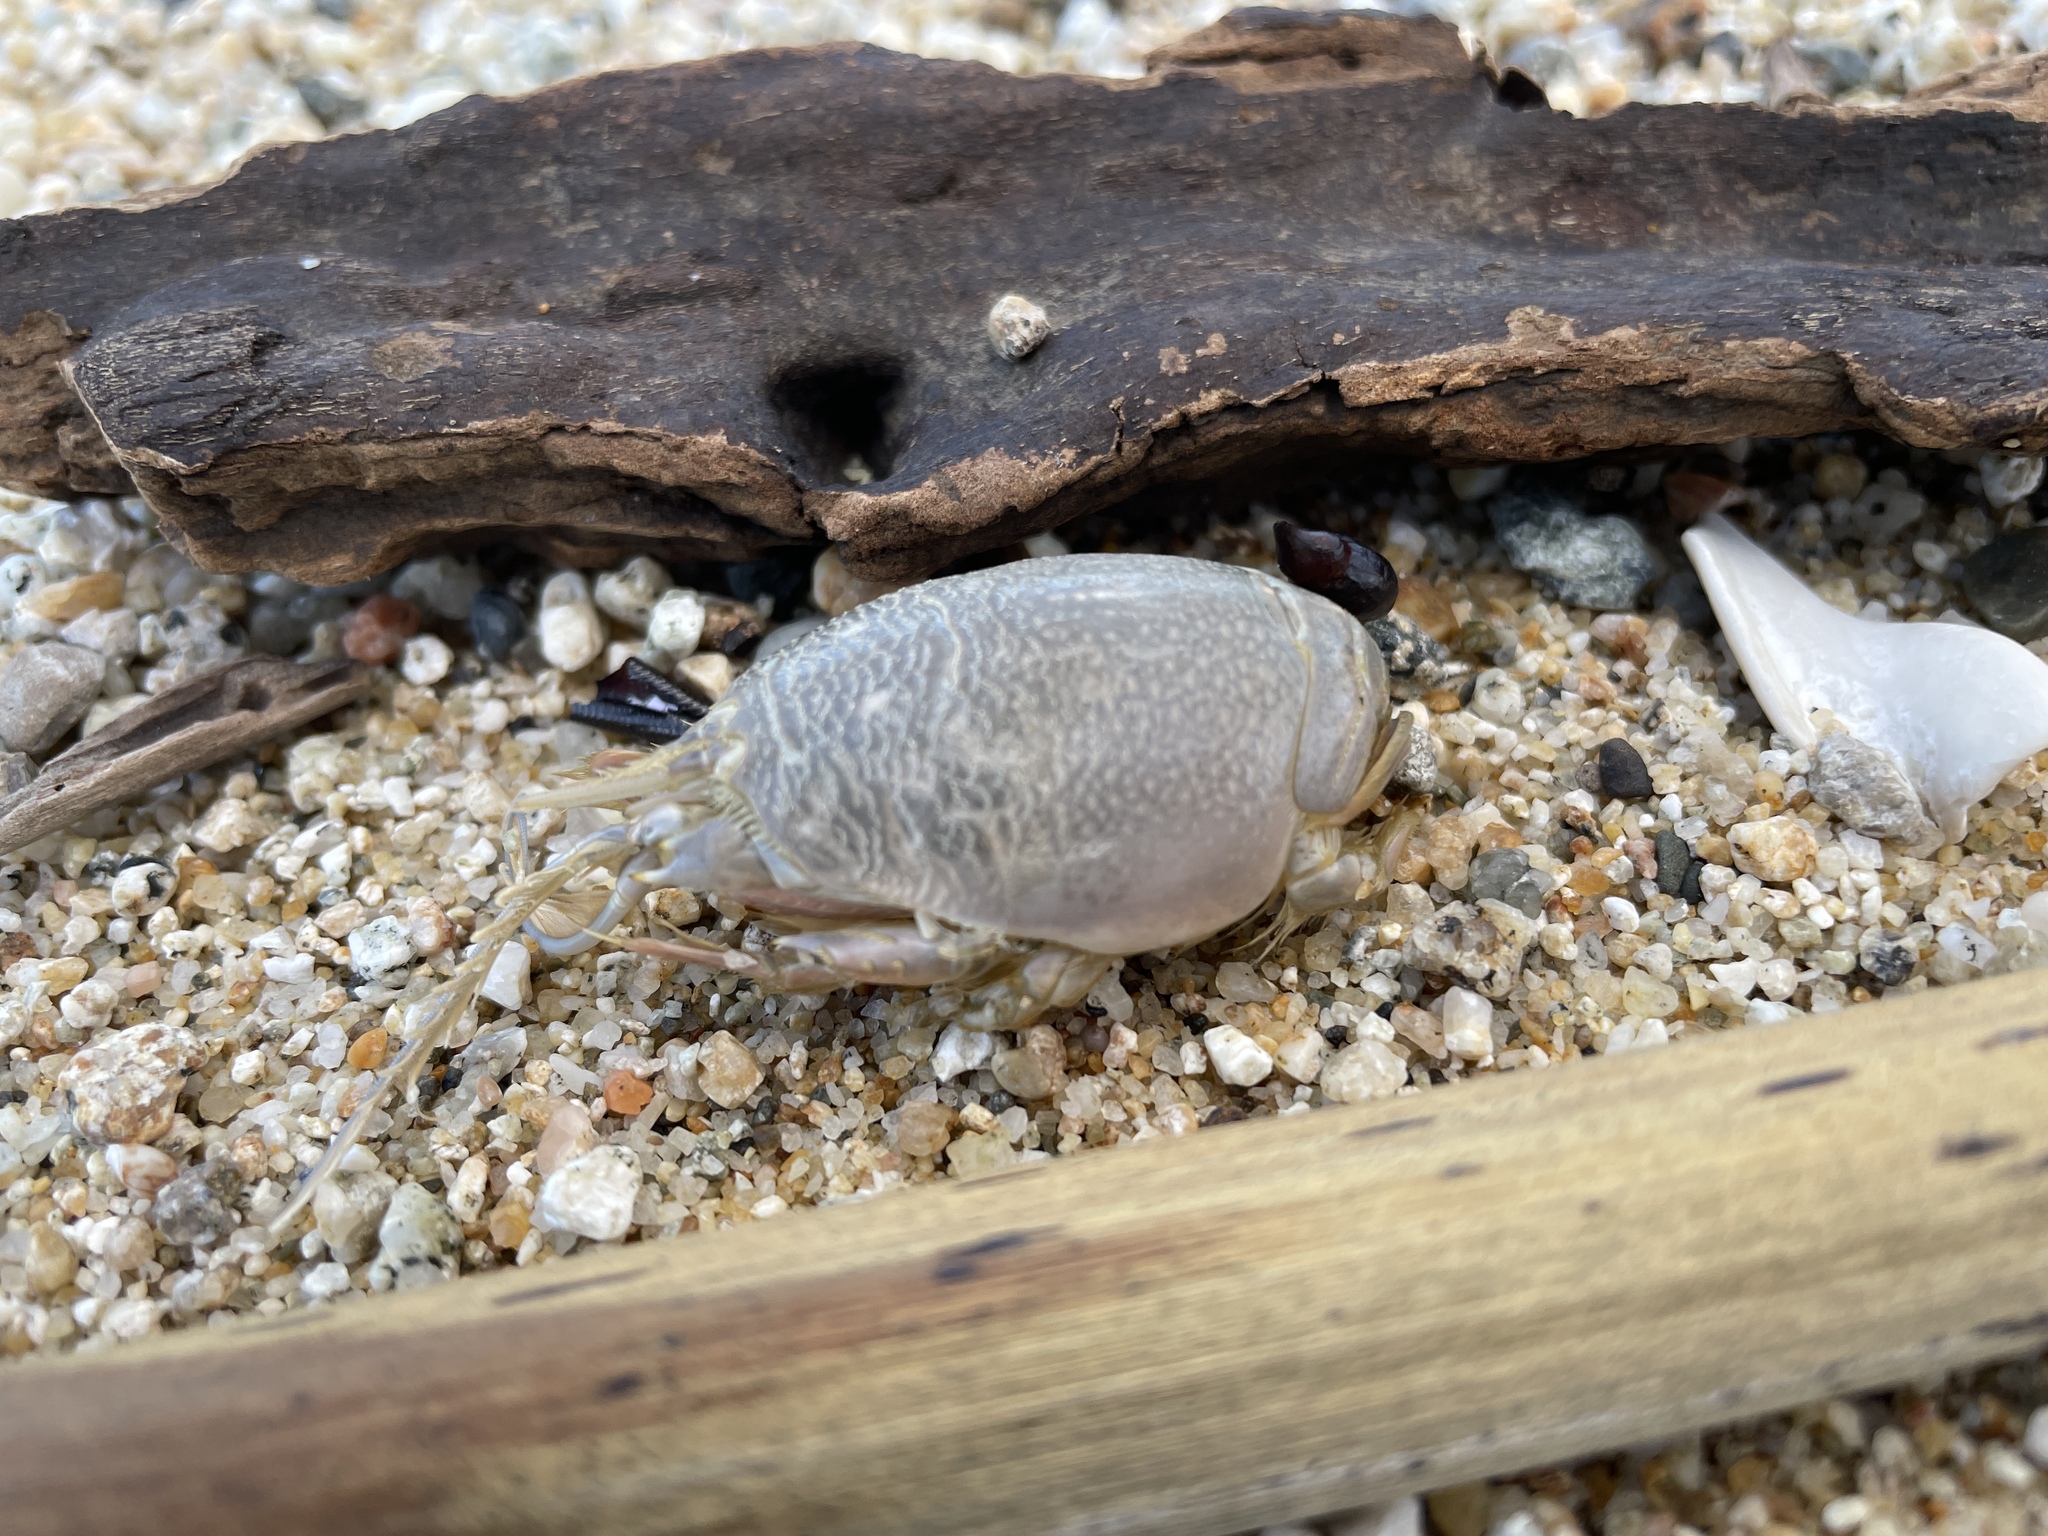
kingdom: Animalia
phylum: Arthropoda
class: Malacostraca
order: Decapoda
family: Hippidae
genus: Emerita
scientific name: Emerita analoga
